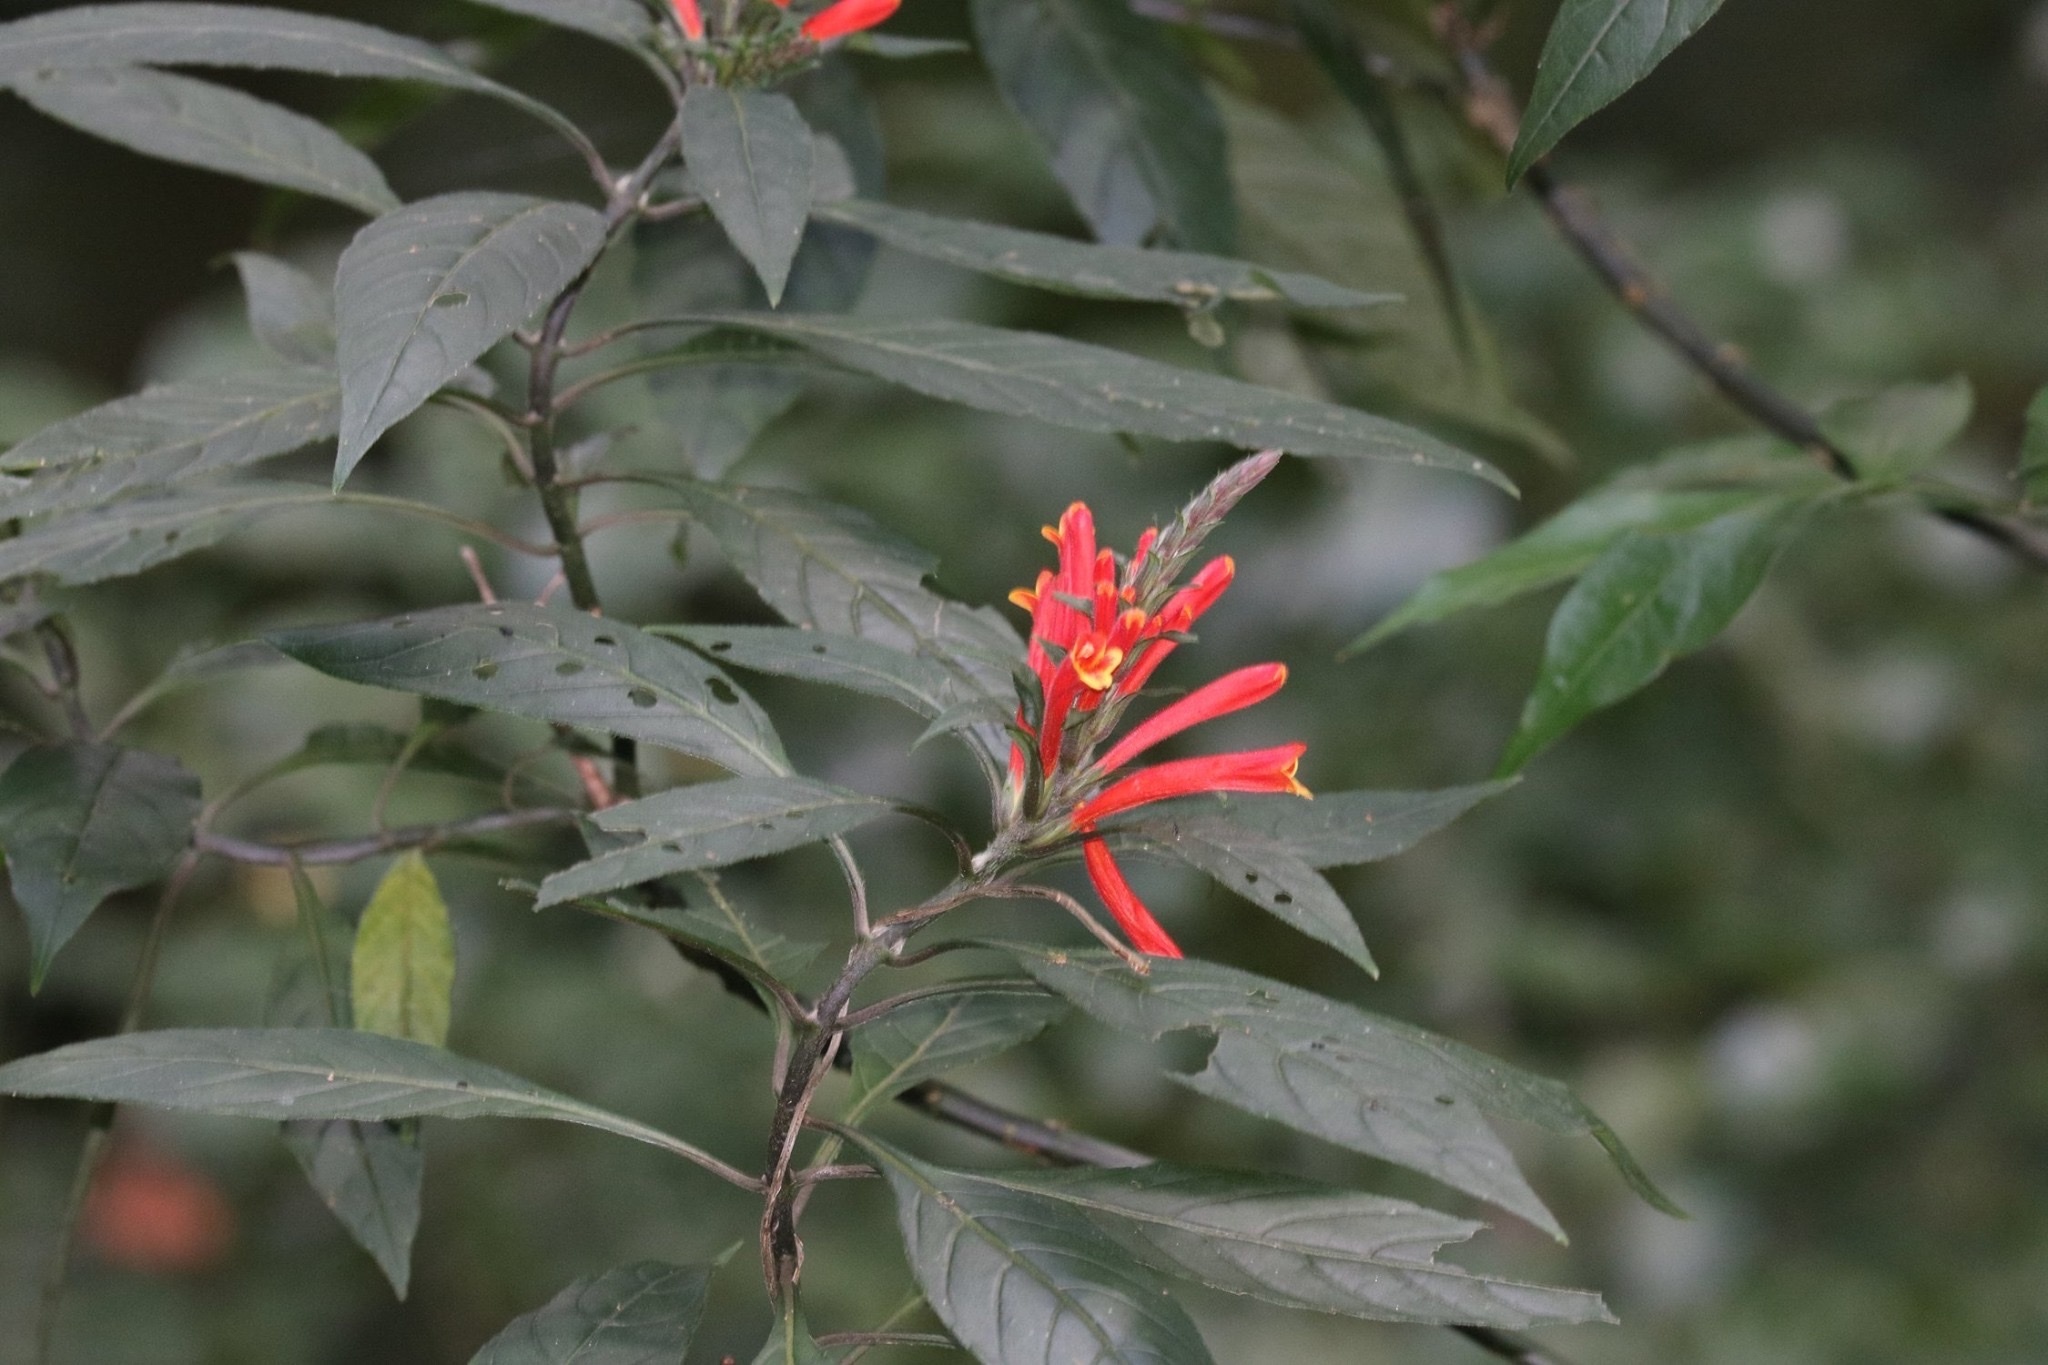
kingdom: Plantae
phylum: Tracheophyta
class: Magnoliopsida
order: Lamiales
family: Acanthaceae
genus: Aphelandra
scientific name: Aphelandra longiflora
